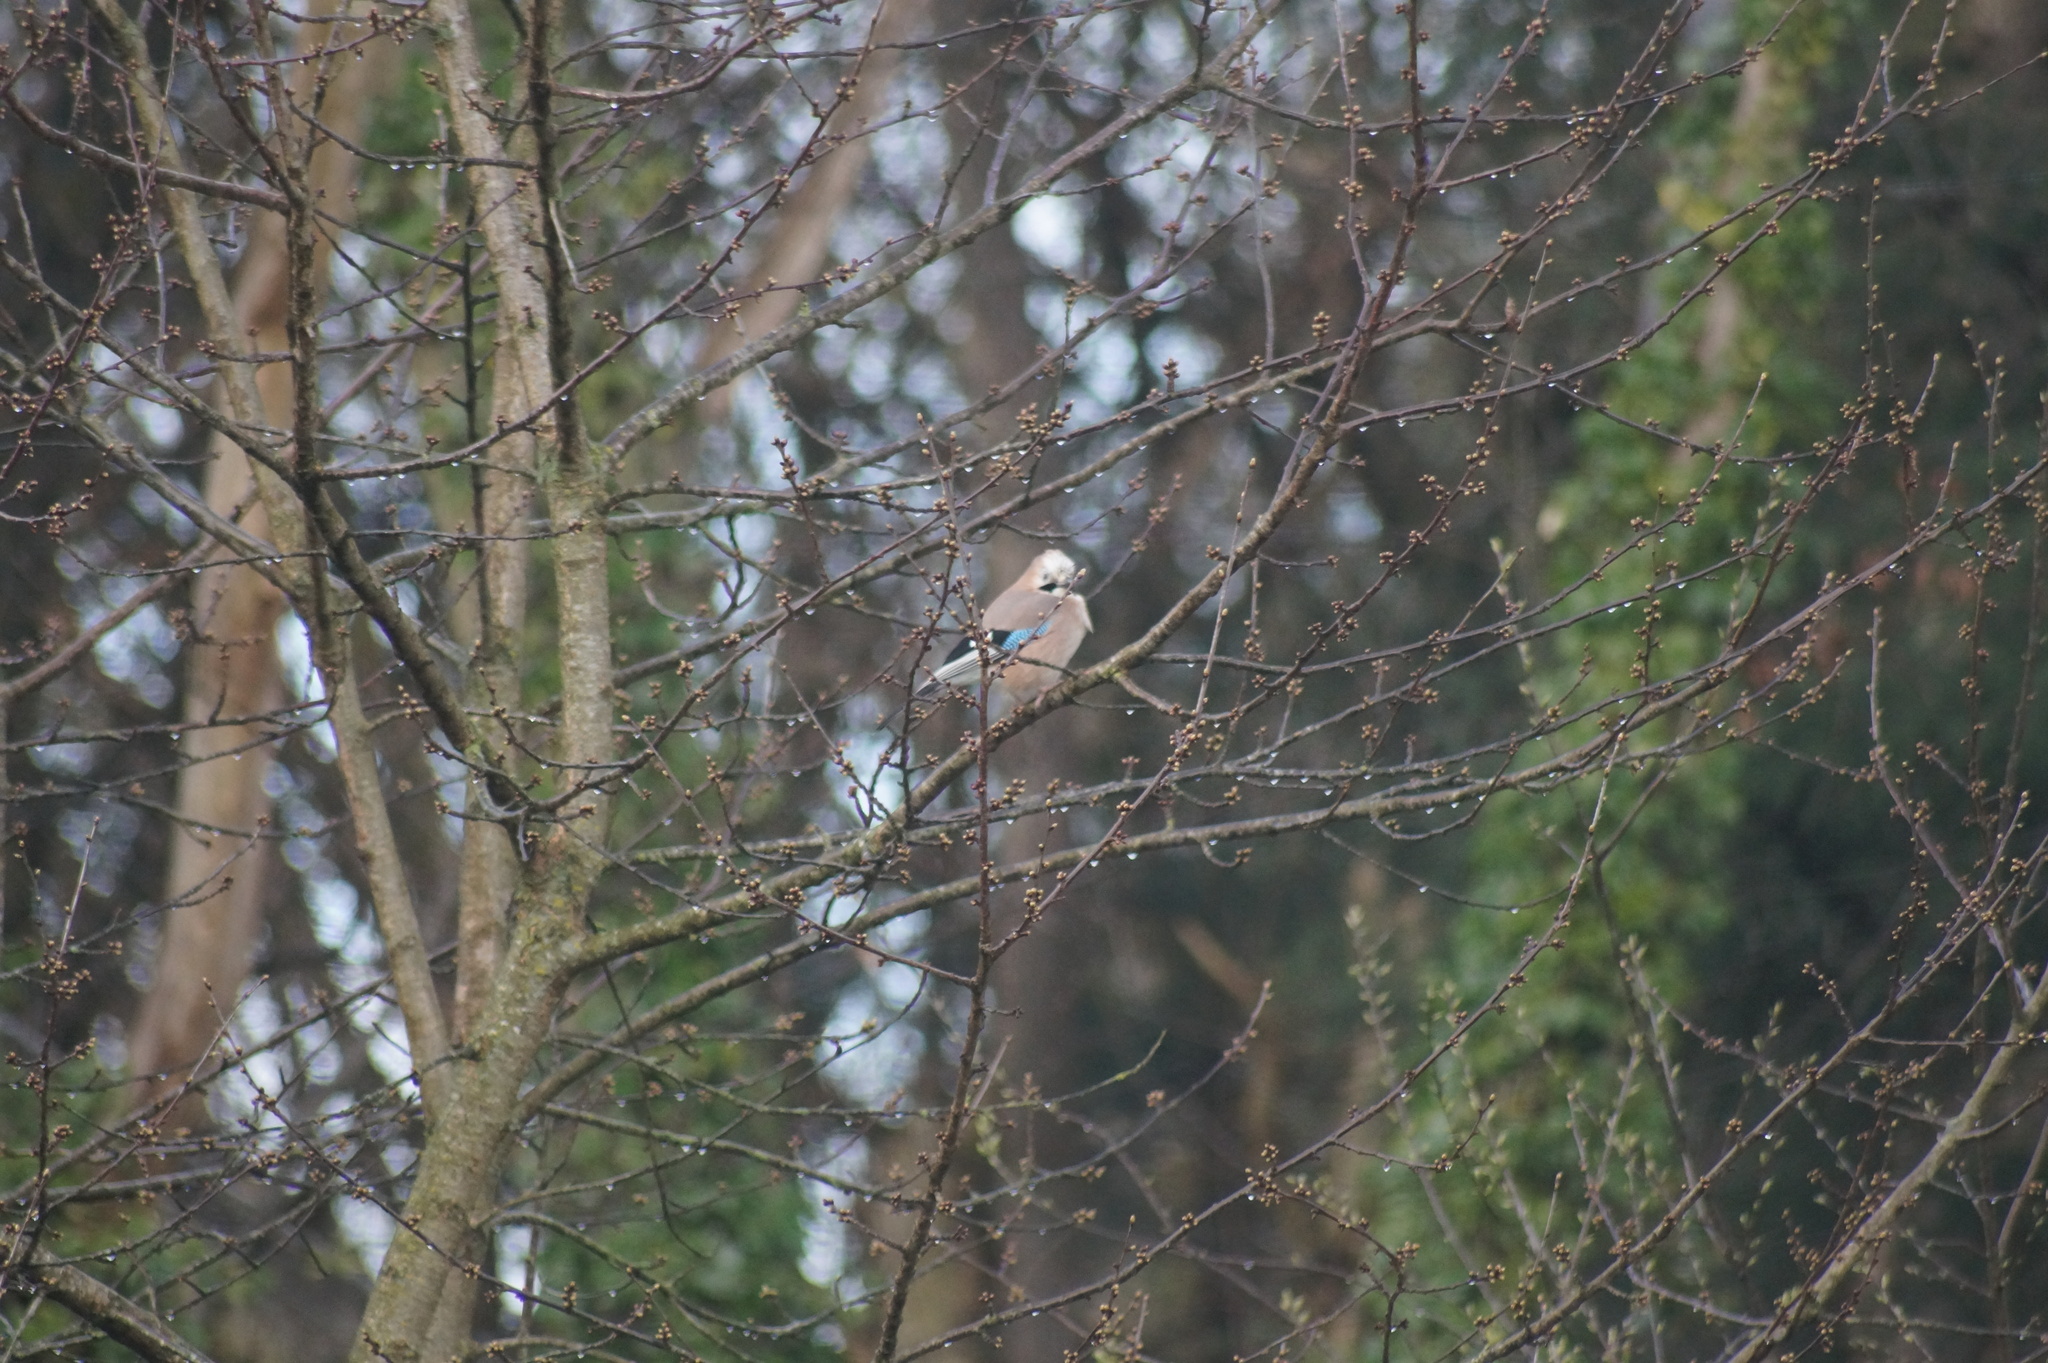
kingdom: Animalia
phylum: Chordata
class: Aves
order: Passeriformes
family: Corvidae
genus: Garrulus
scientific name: Garrulus glandarius
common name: Eurasian jay
